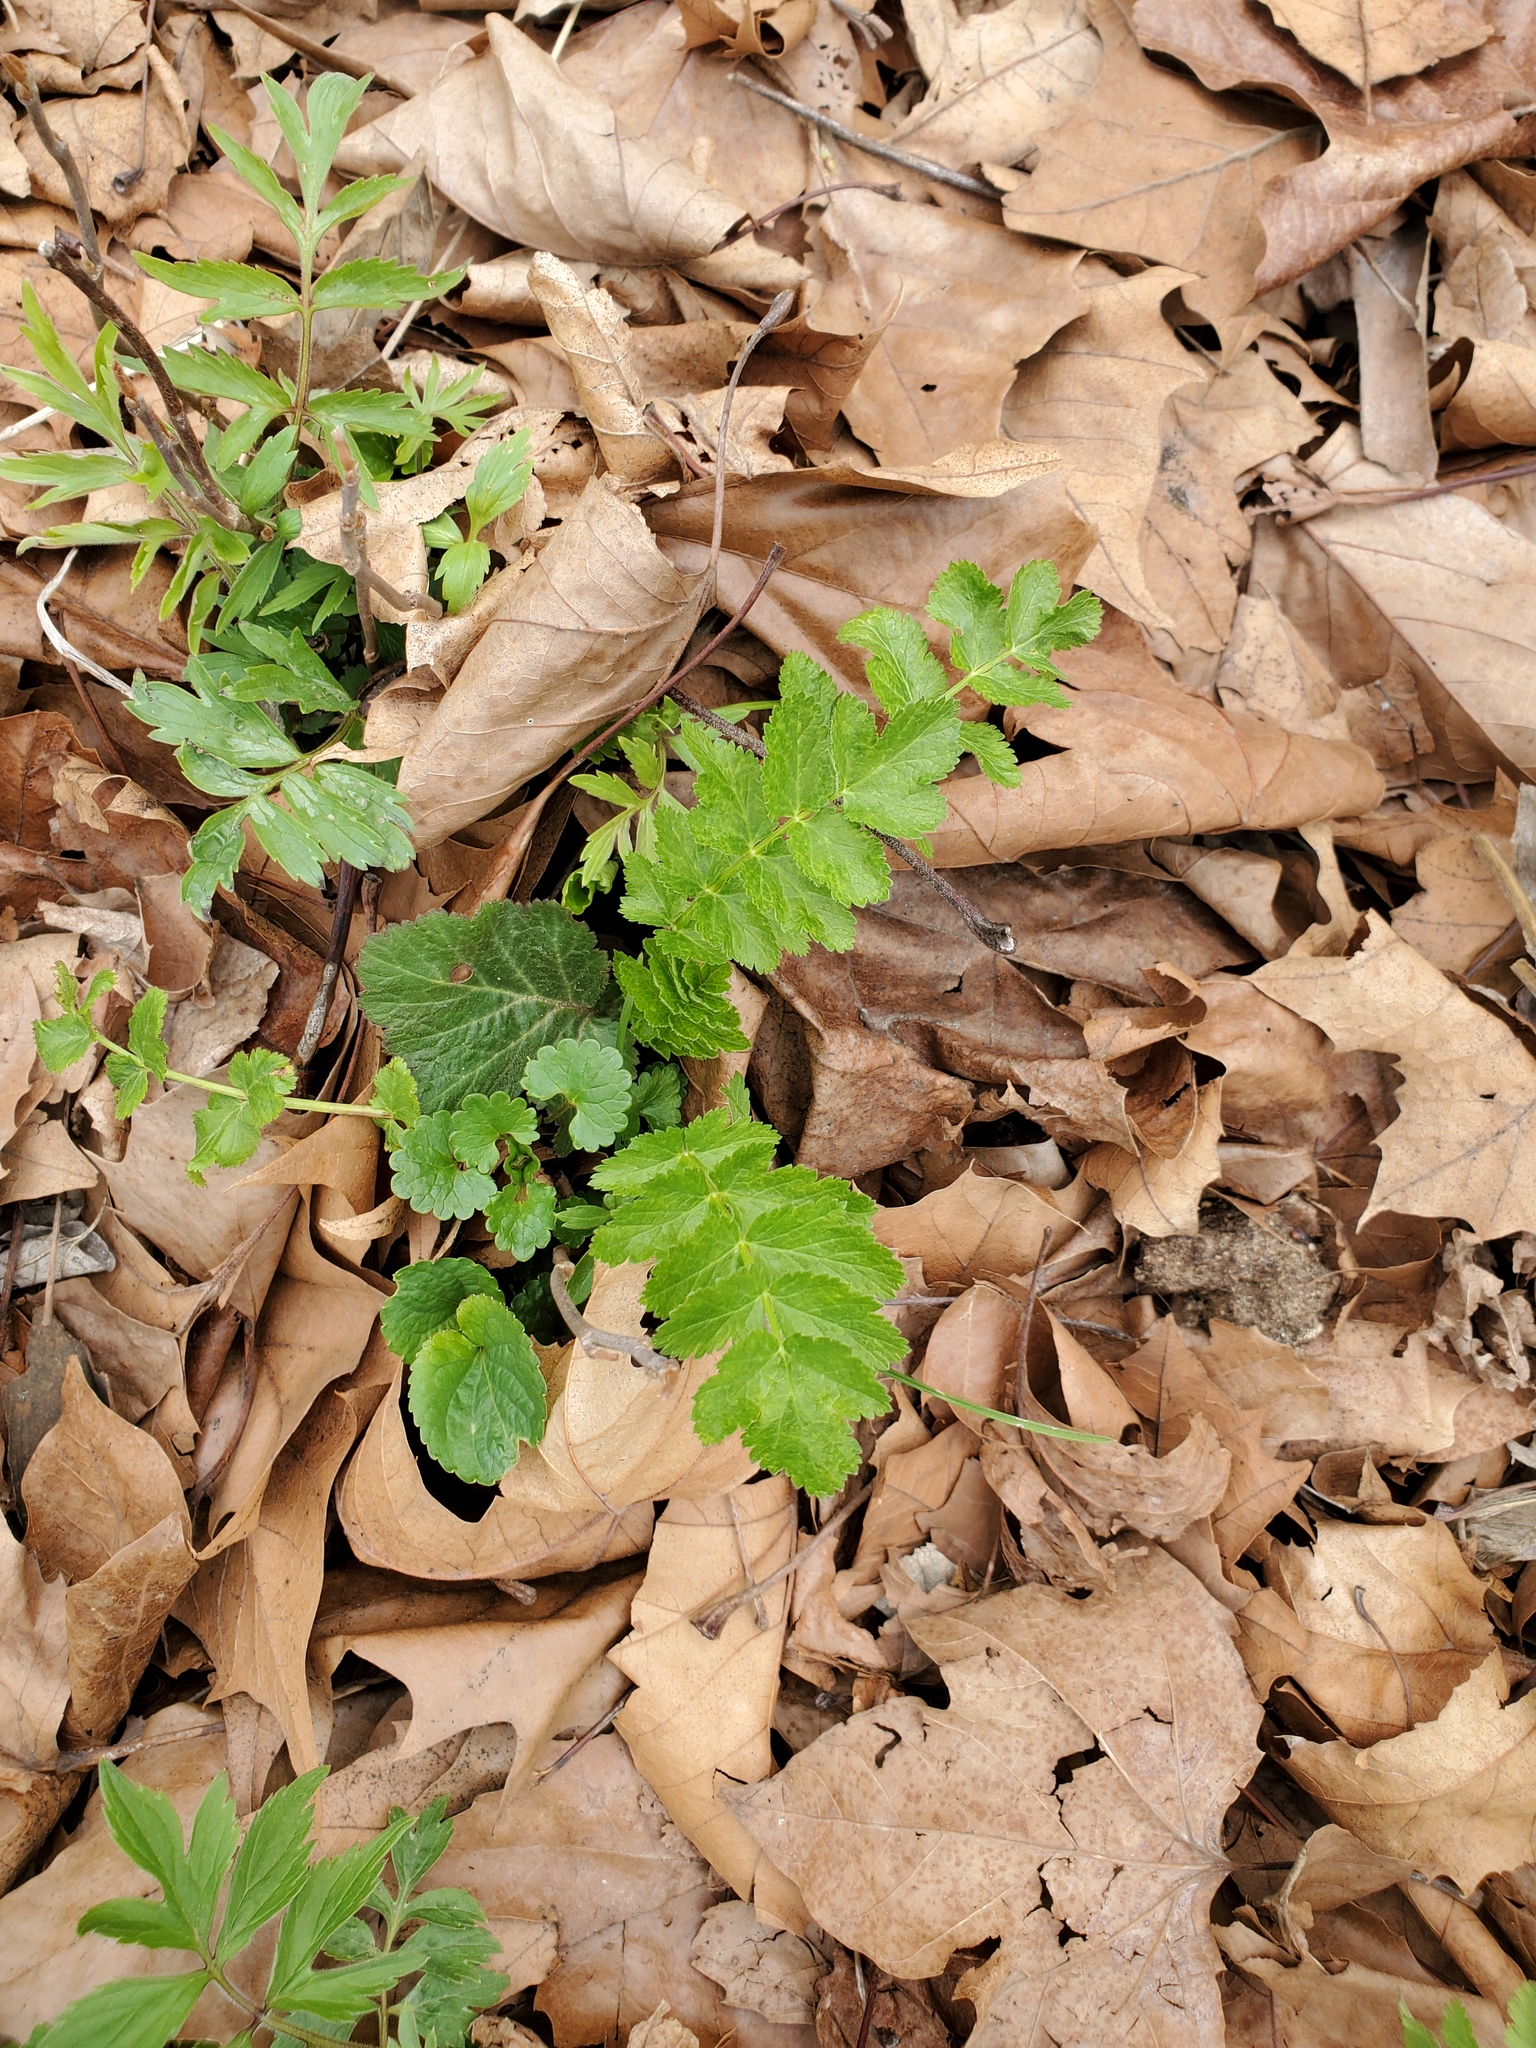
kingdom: Plantae
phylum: Tracheophyta
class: Magnoliopsida
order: Apiales
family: Apiaceae
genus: Pastinaca
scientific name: Pastinaca sativa
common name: Wild parsnip
